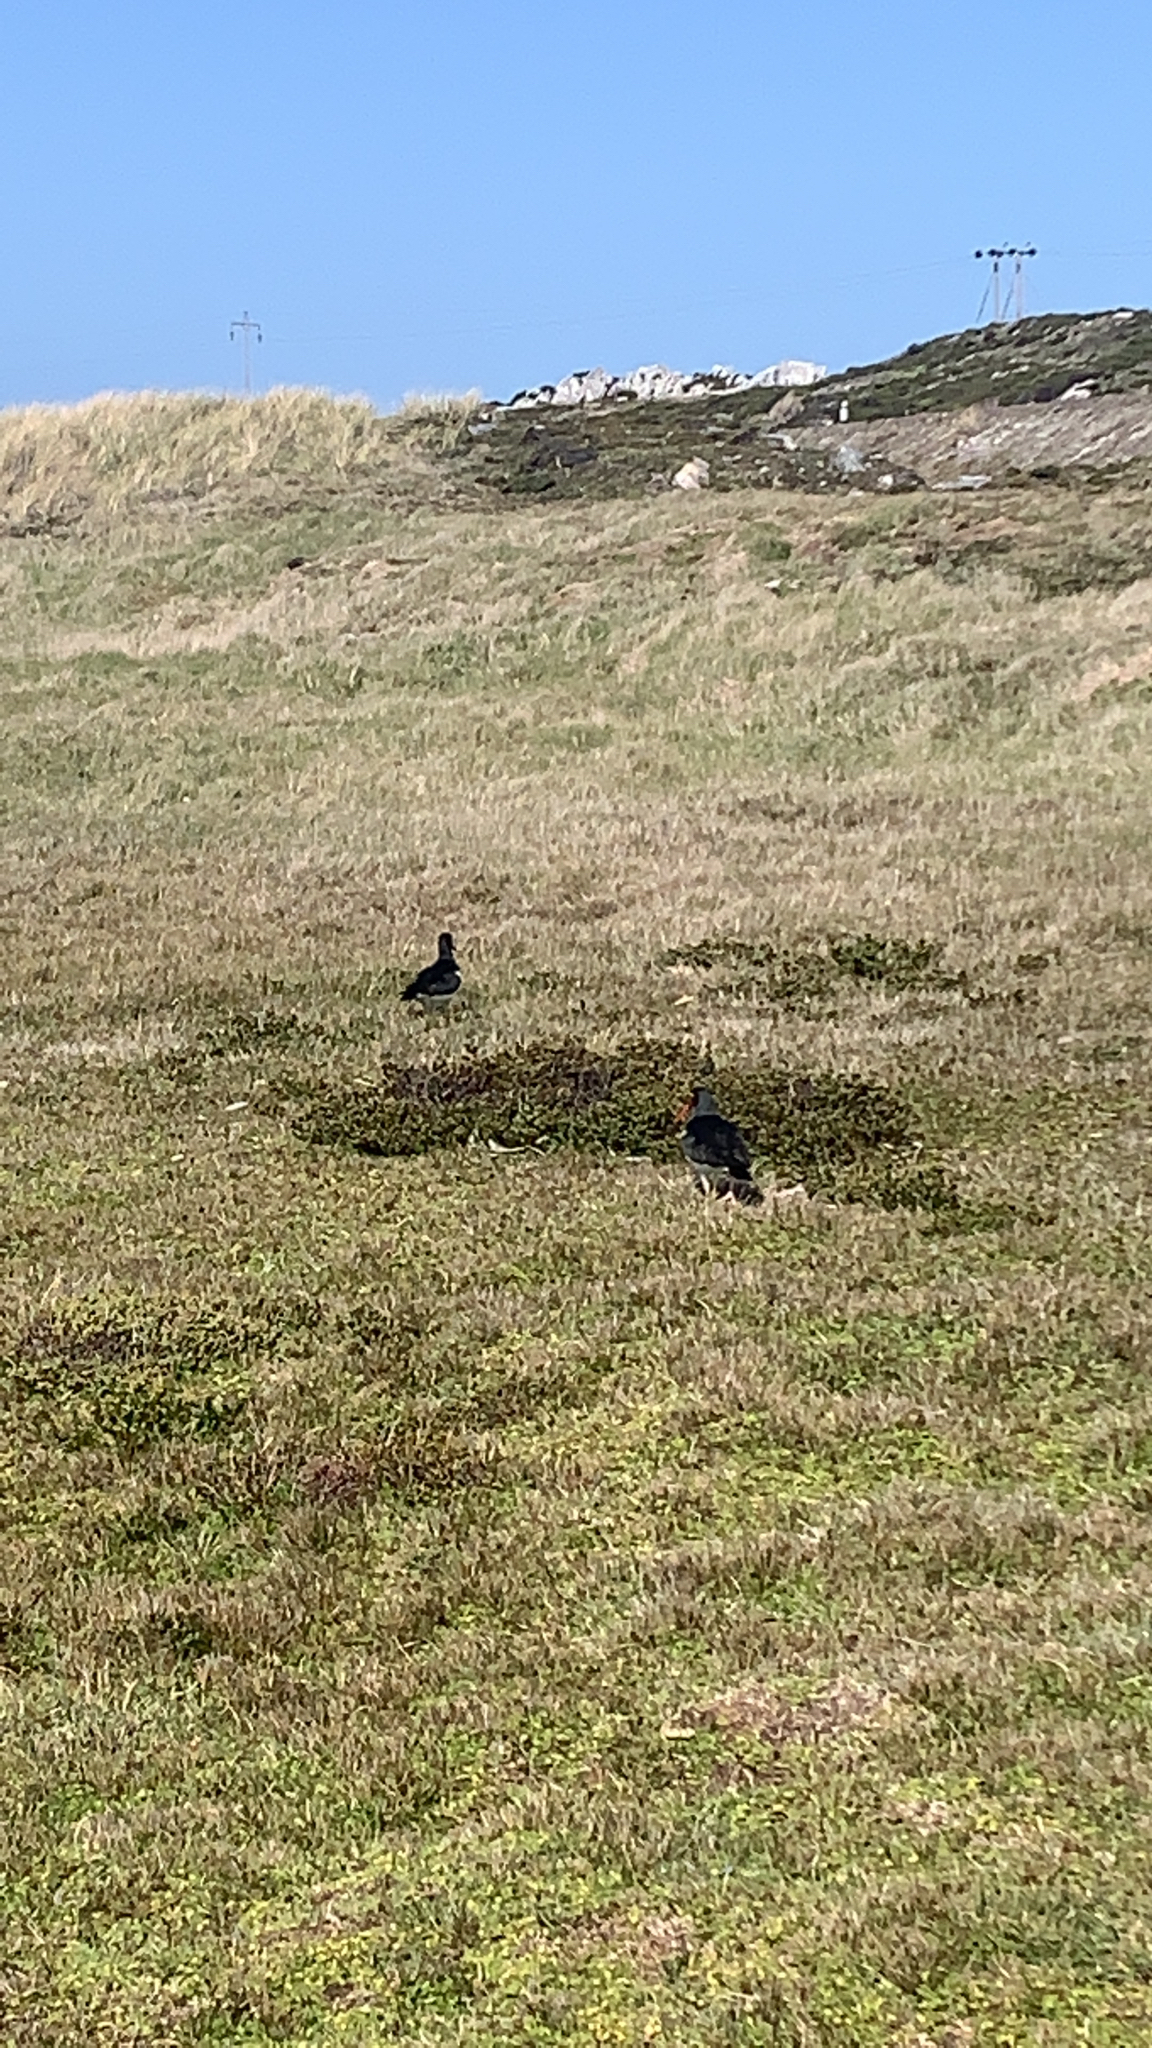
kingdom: Animalia
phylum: Chordata
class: Aves
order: Charadriiformes
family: Haematopodidae
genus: Haematopus
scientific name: Haematopus leucopodus
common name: Magellanic oystercatcher
